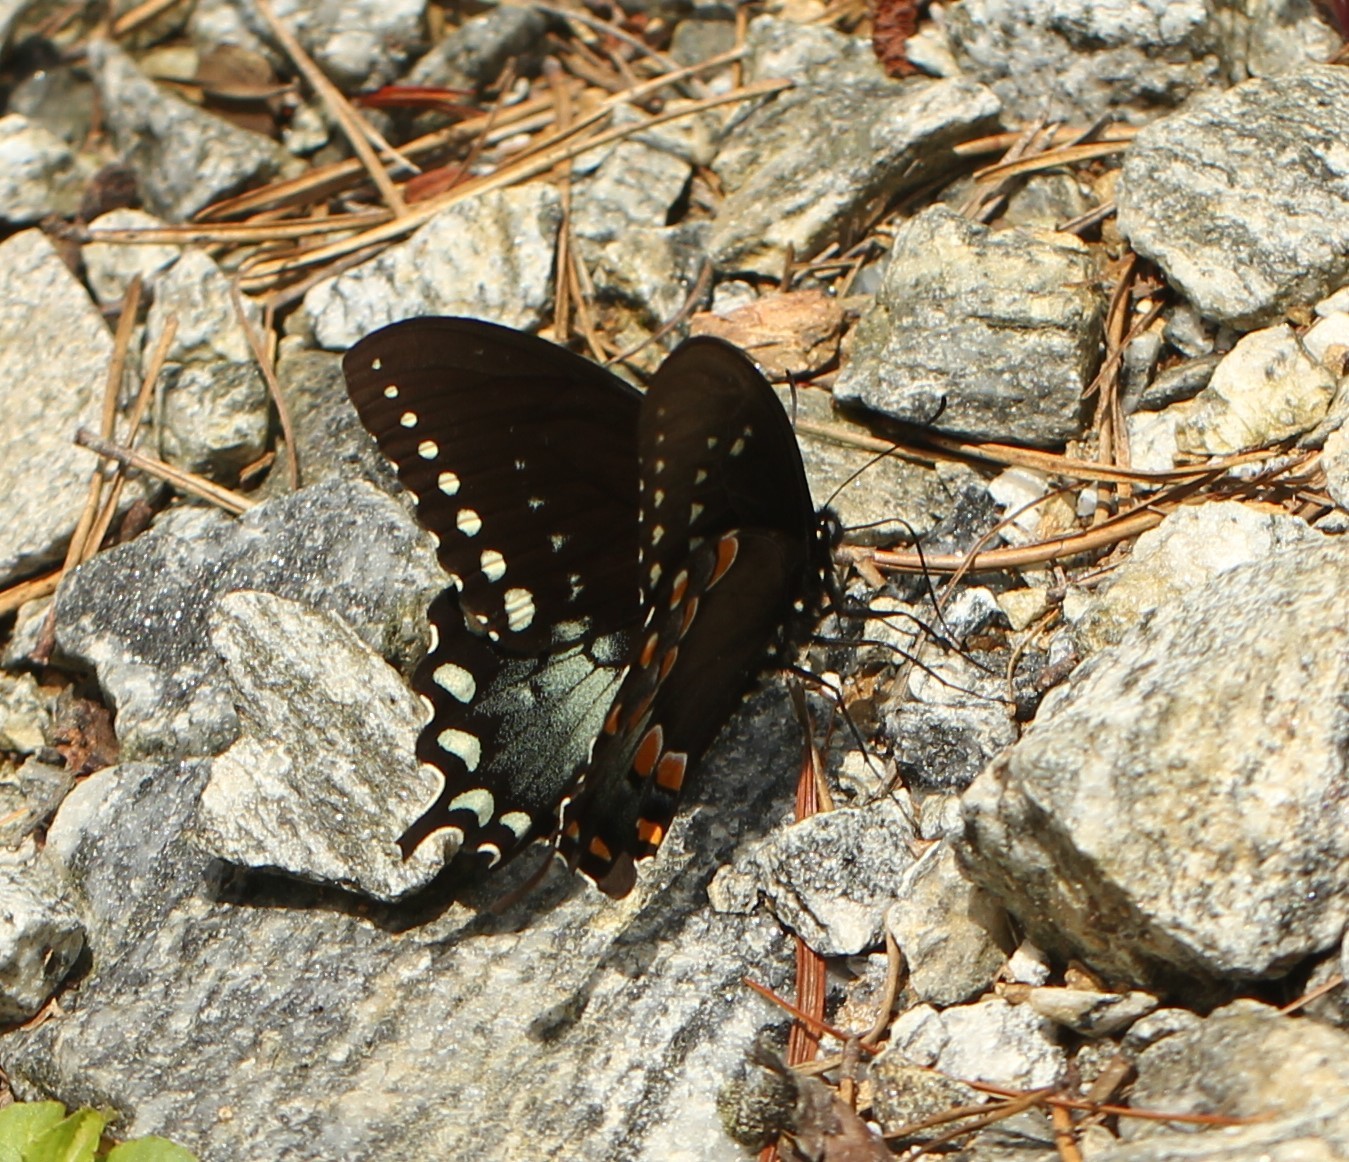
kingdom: Animalia
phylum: Arthropoda
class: Insecta
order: Lepidoptera
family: Papilionidae
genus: Papilio
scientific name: Papilio troilus
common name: Spicebush swallowtail
